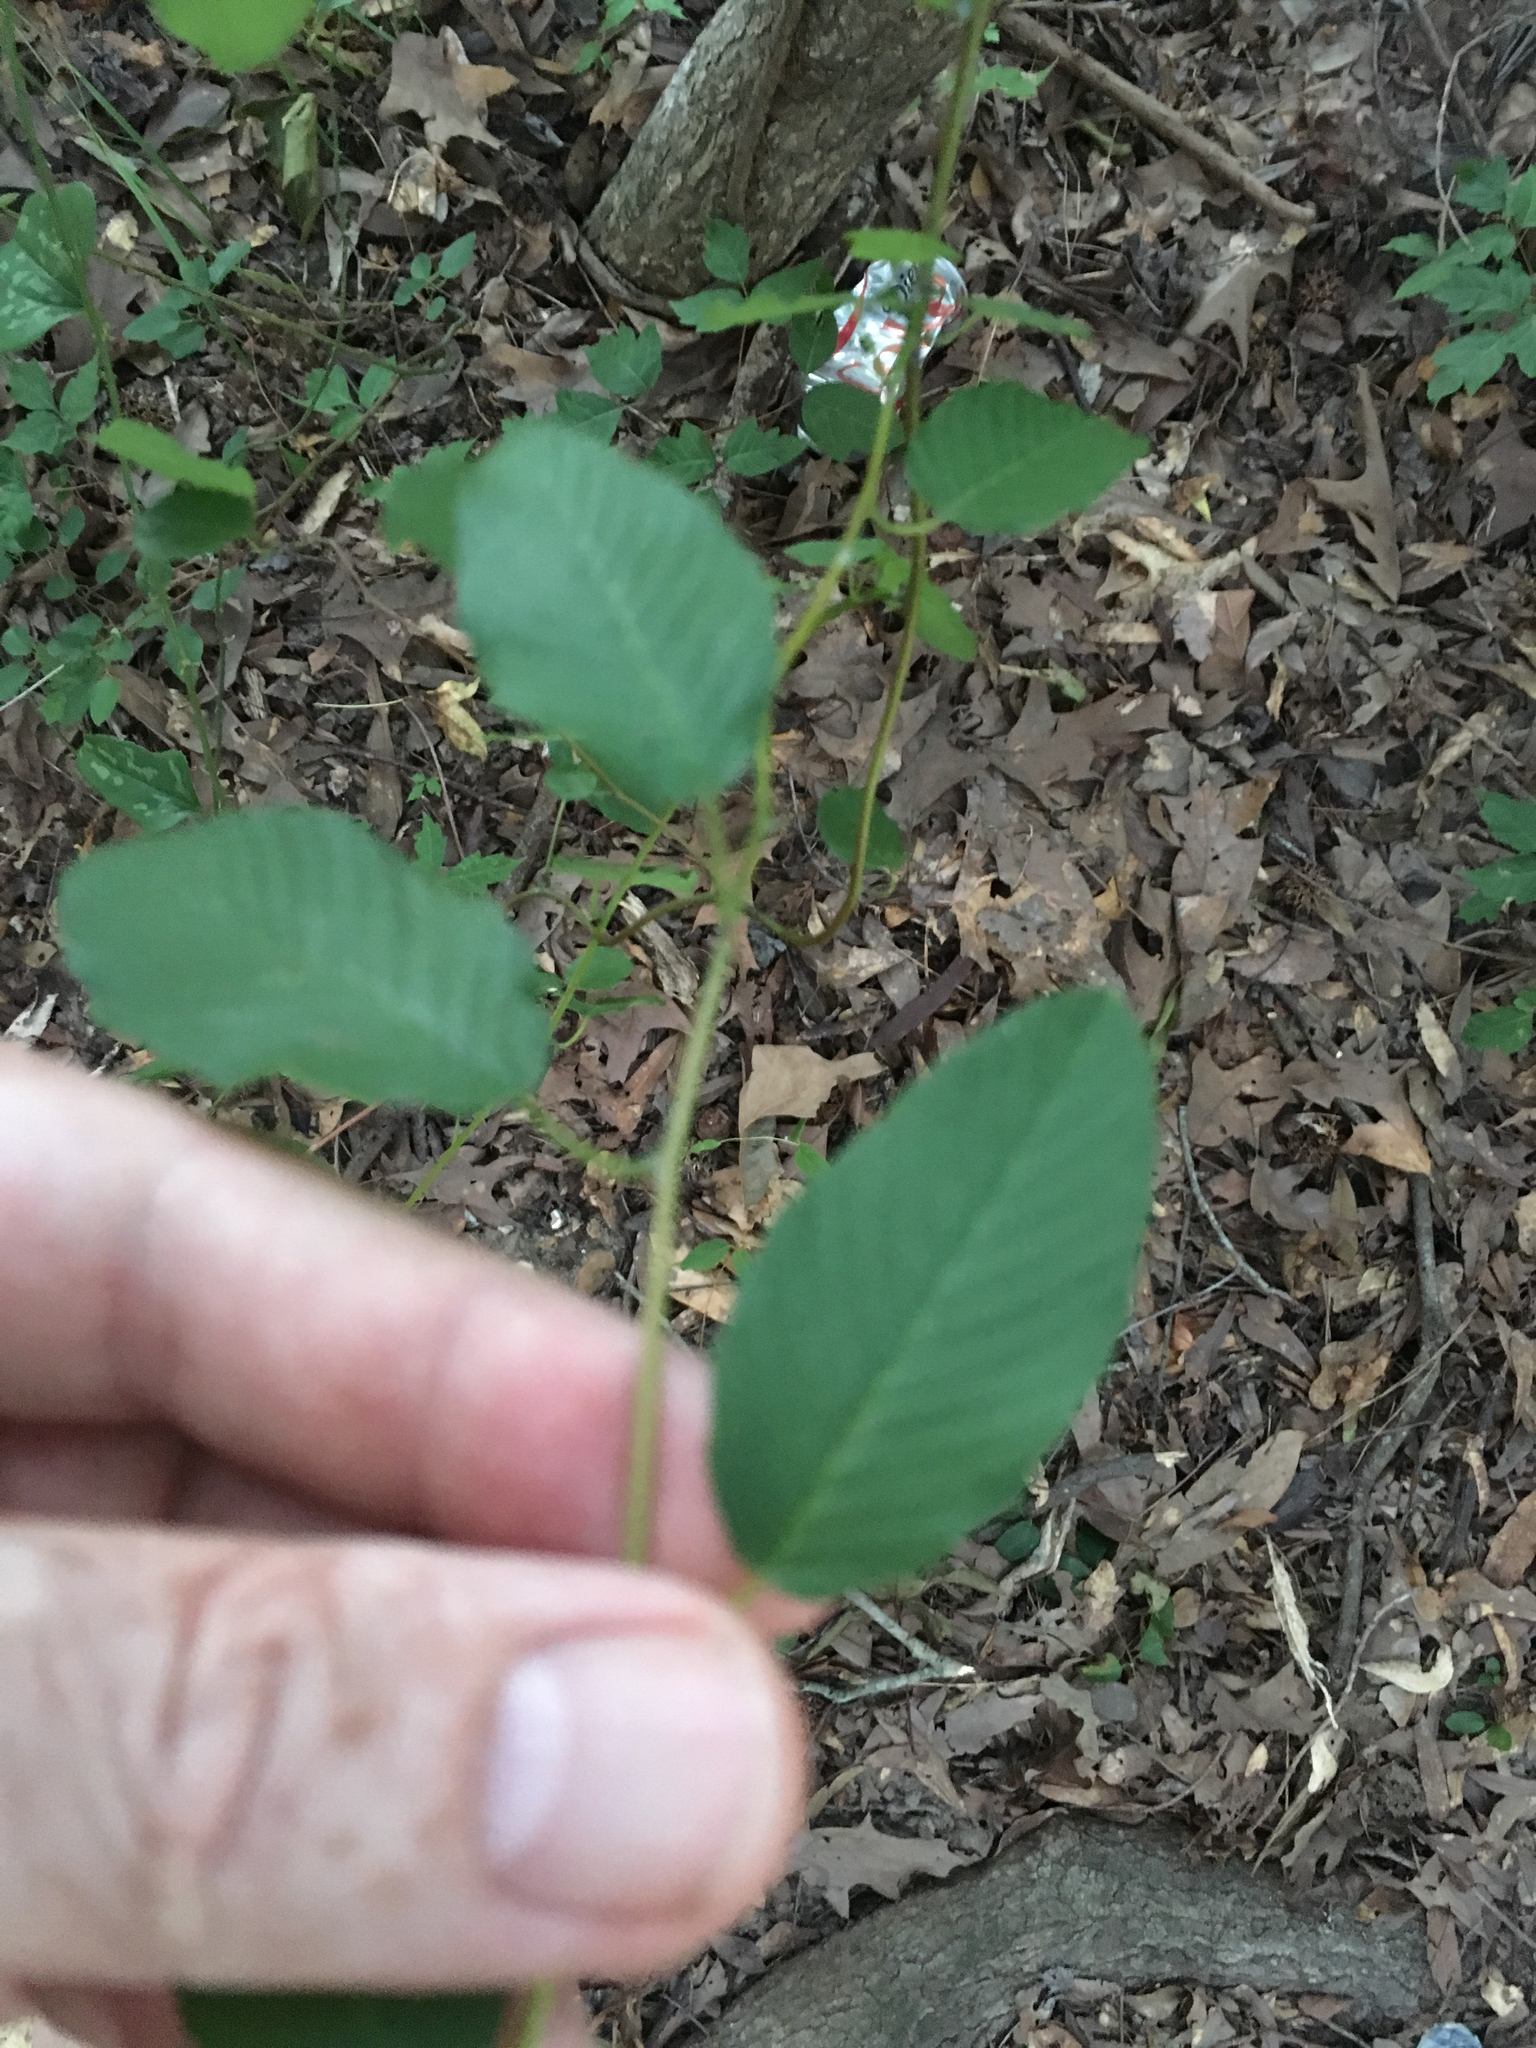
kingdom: Plantae
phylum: Tracheophyta
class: Magnoliopsida
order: Rosales
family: Rhamnaceae
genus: Berchemia
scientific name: Berchemia scandens
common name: Supplejack
